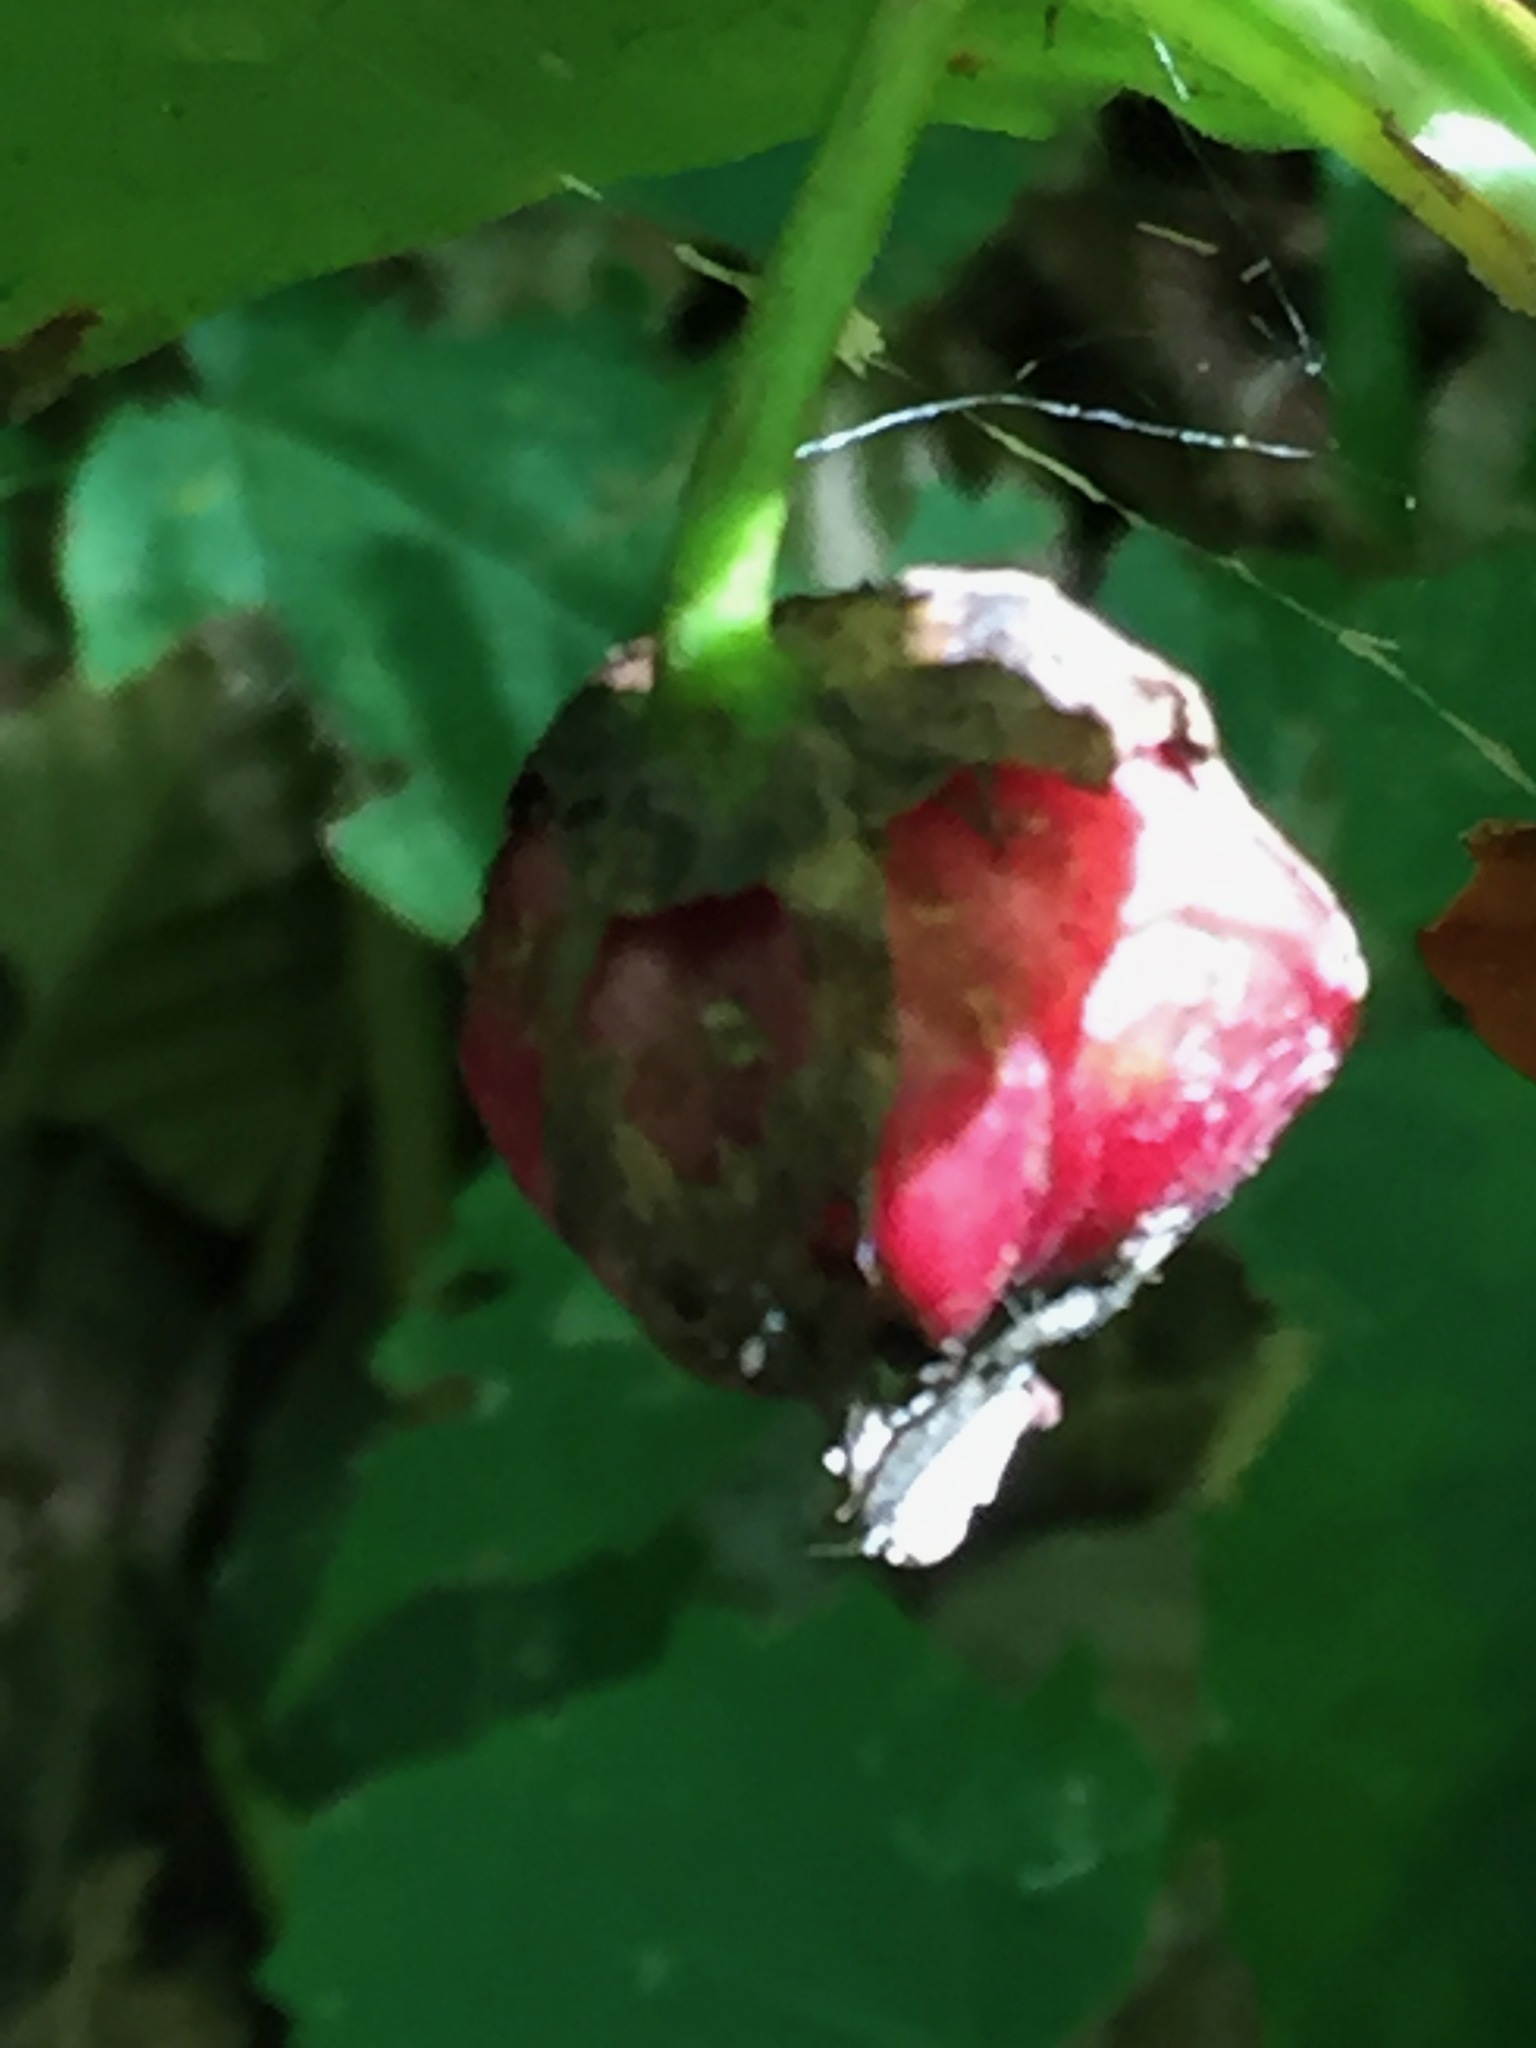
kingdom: Plantae
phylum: Tracheophyta
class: Liliopsida
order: Liliales
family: Melanthiaceae
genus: Trillium
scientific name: Trillium erectum
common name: Purple trillium
